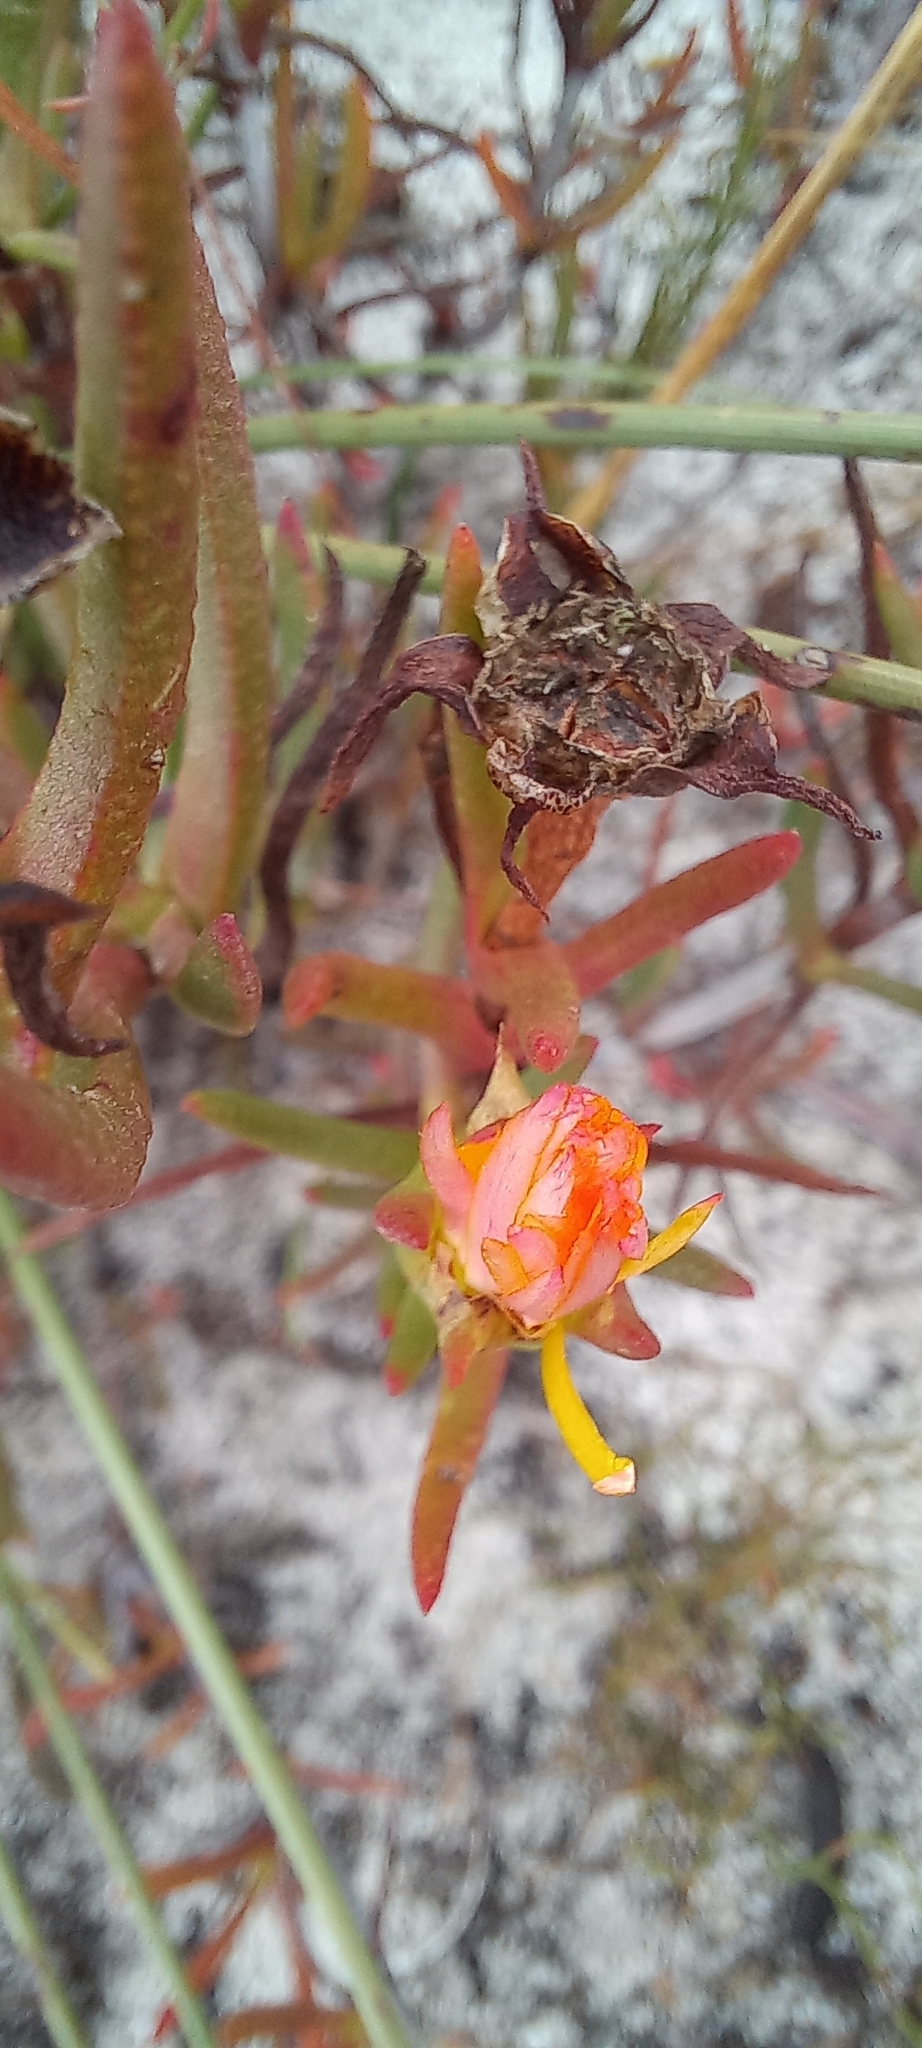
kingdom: Plantae
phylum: Tracheophyta
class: Magnoliopsida
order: Caryophyllales
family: Aizoaceae
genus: Lampranthus
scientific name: Lampranthus bicolor
